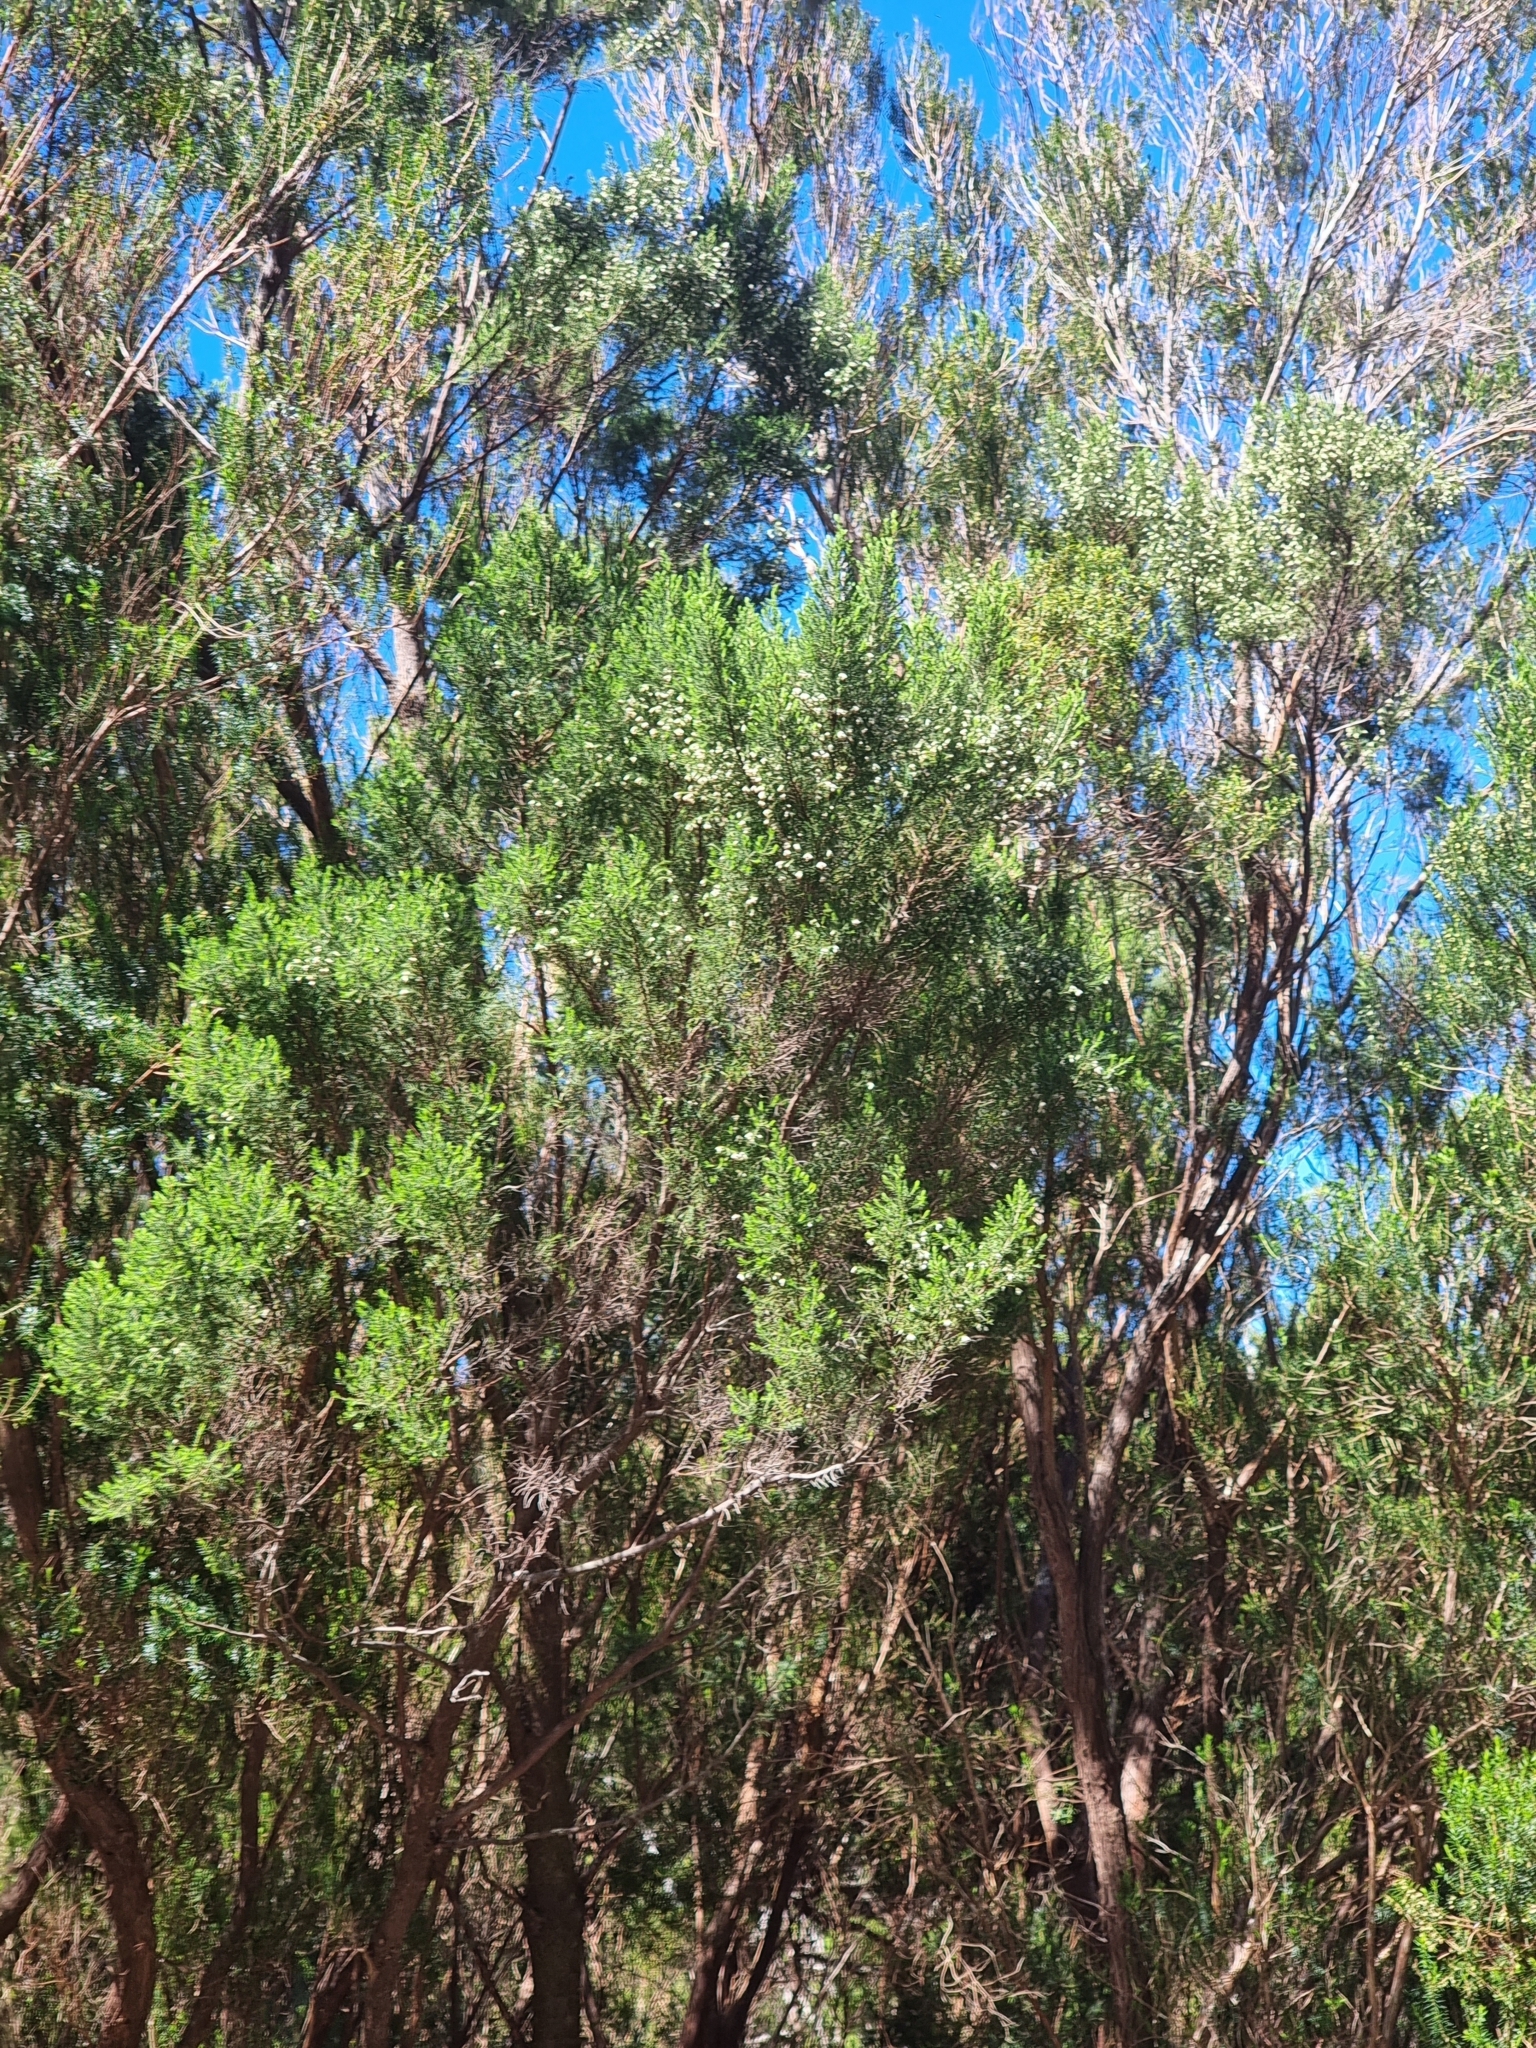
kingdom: Plantae
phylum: Tracheophyta
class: Magnoliopsida
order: Ericales
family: Ericaceae
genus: Erica
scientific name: Erica canariensis
